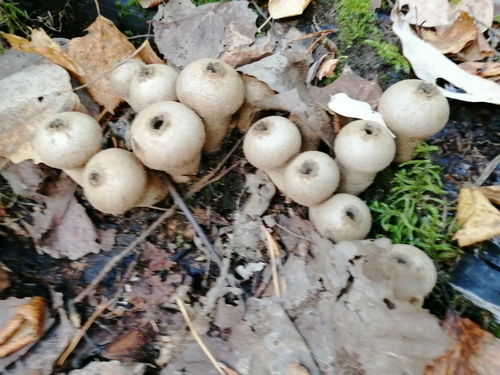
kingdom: Fungi
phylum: Basidiomycota
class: Agaricomycetes
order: Agaricales
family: Lycoperdaceae
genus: Lycoperdon
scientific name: Lycoperdon perlatum
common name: Common puffball
